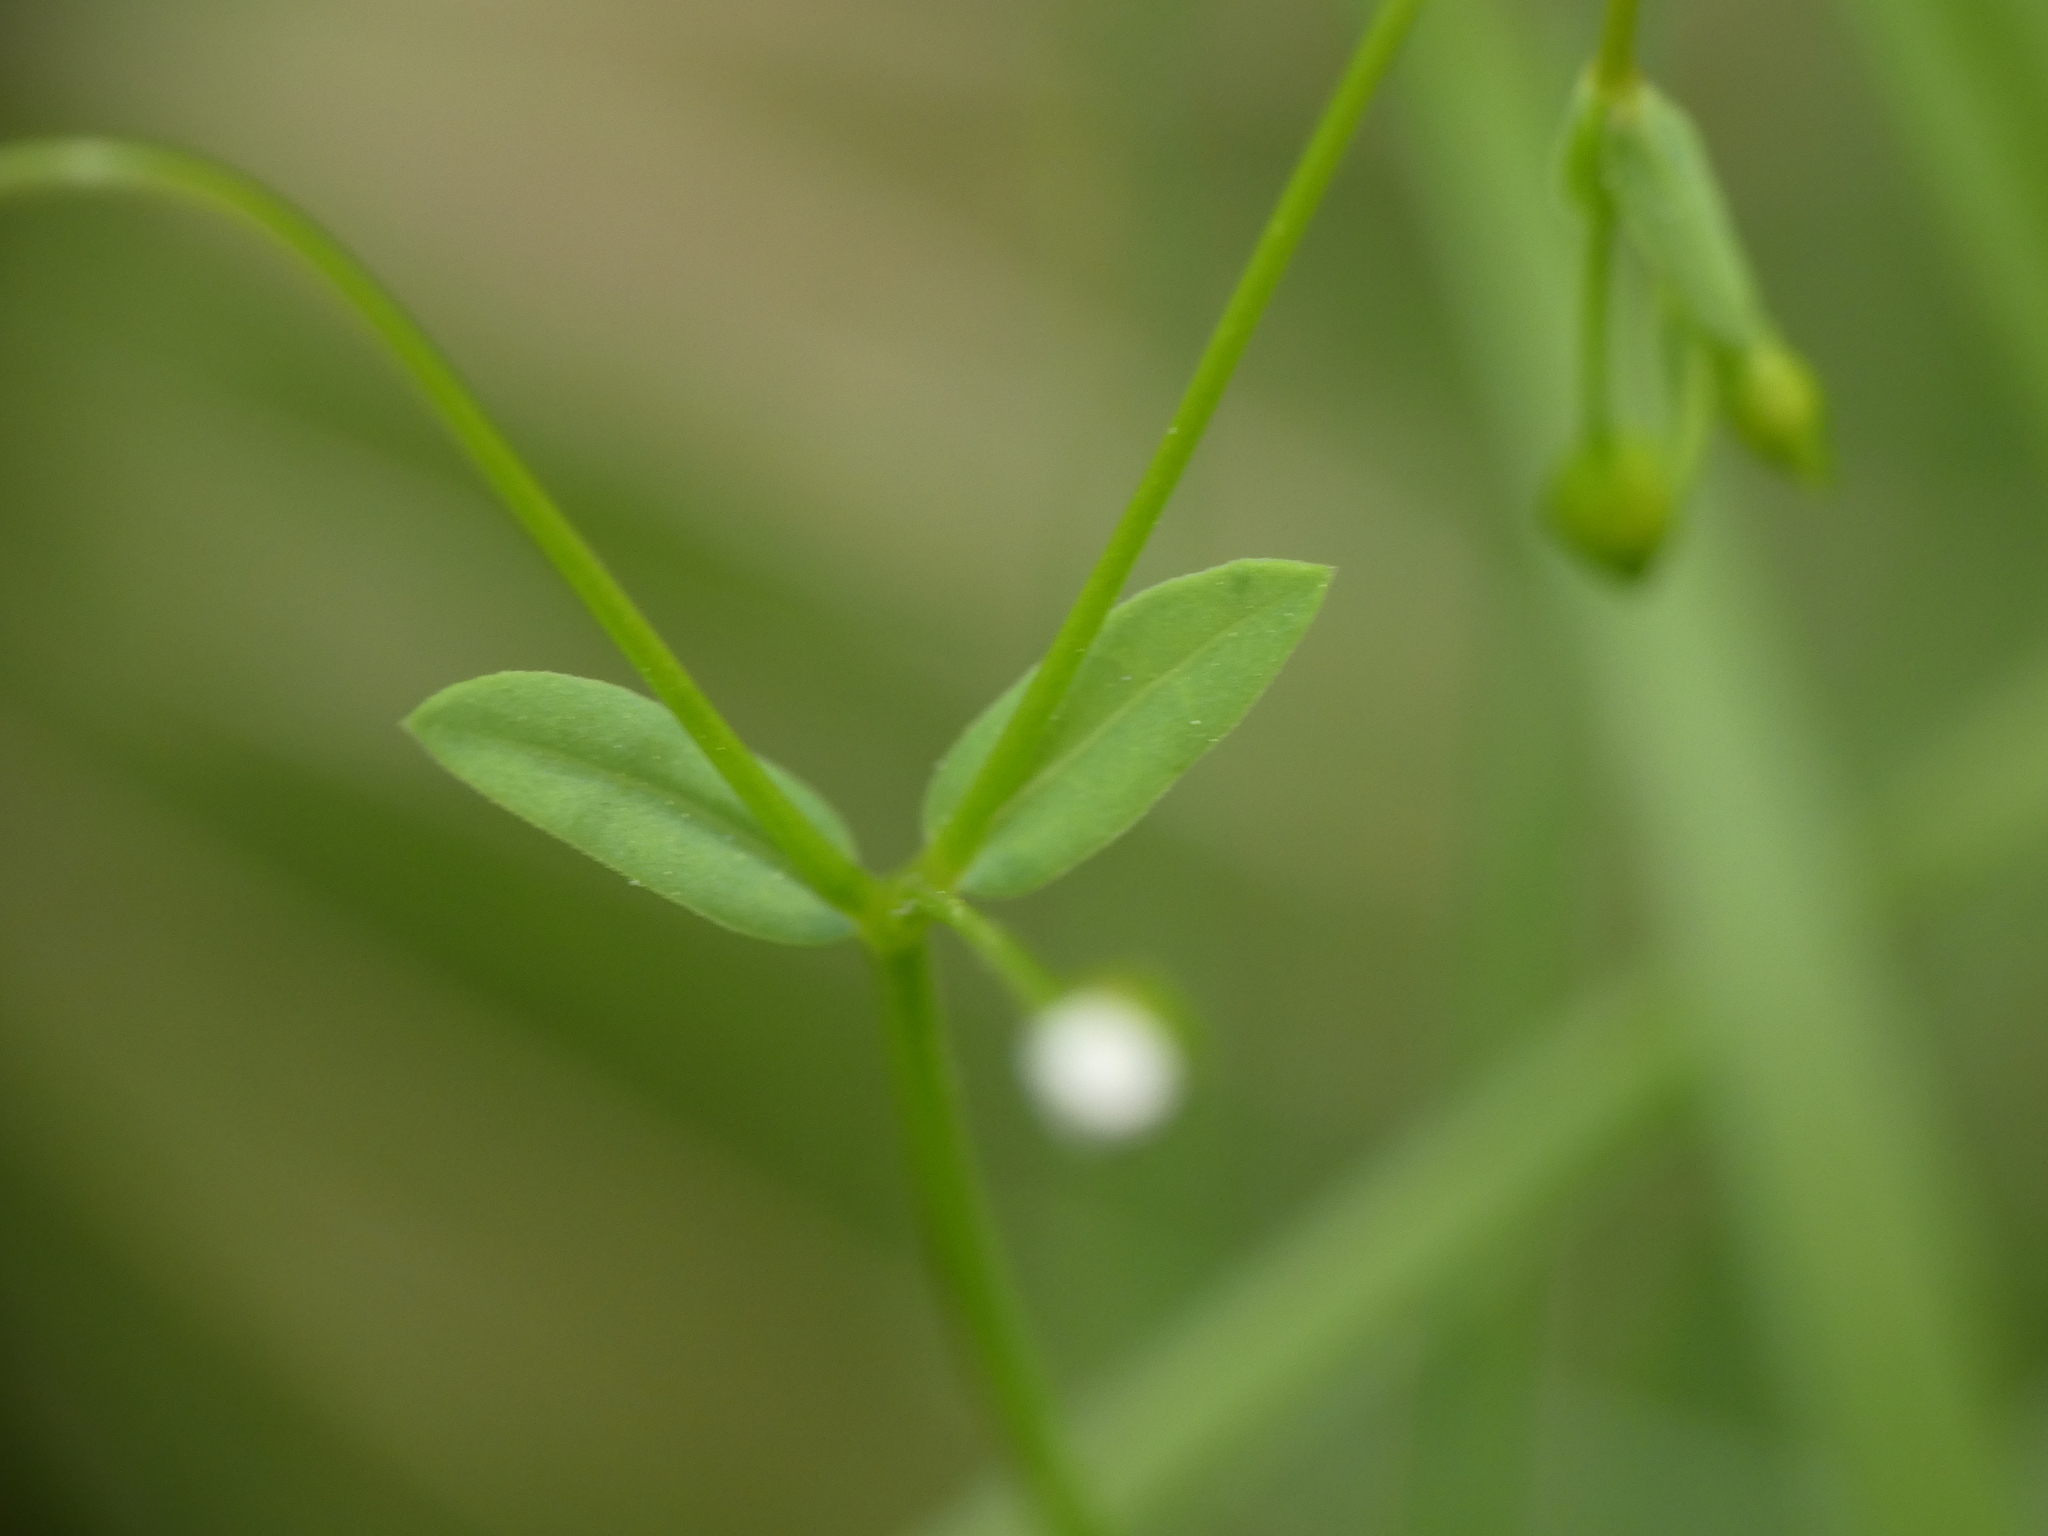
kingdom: Plantae
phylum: Tracheophyta
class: Magnoliopsida
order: Malpighiales
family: Linaceae
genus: Linum
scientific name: Linum catharticum
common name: Fairy flax
